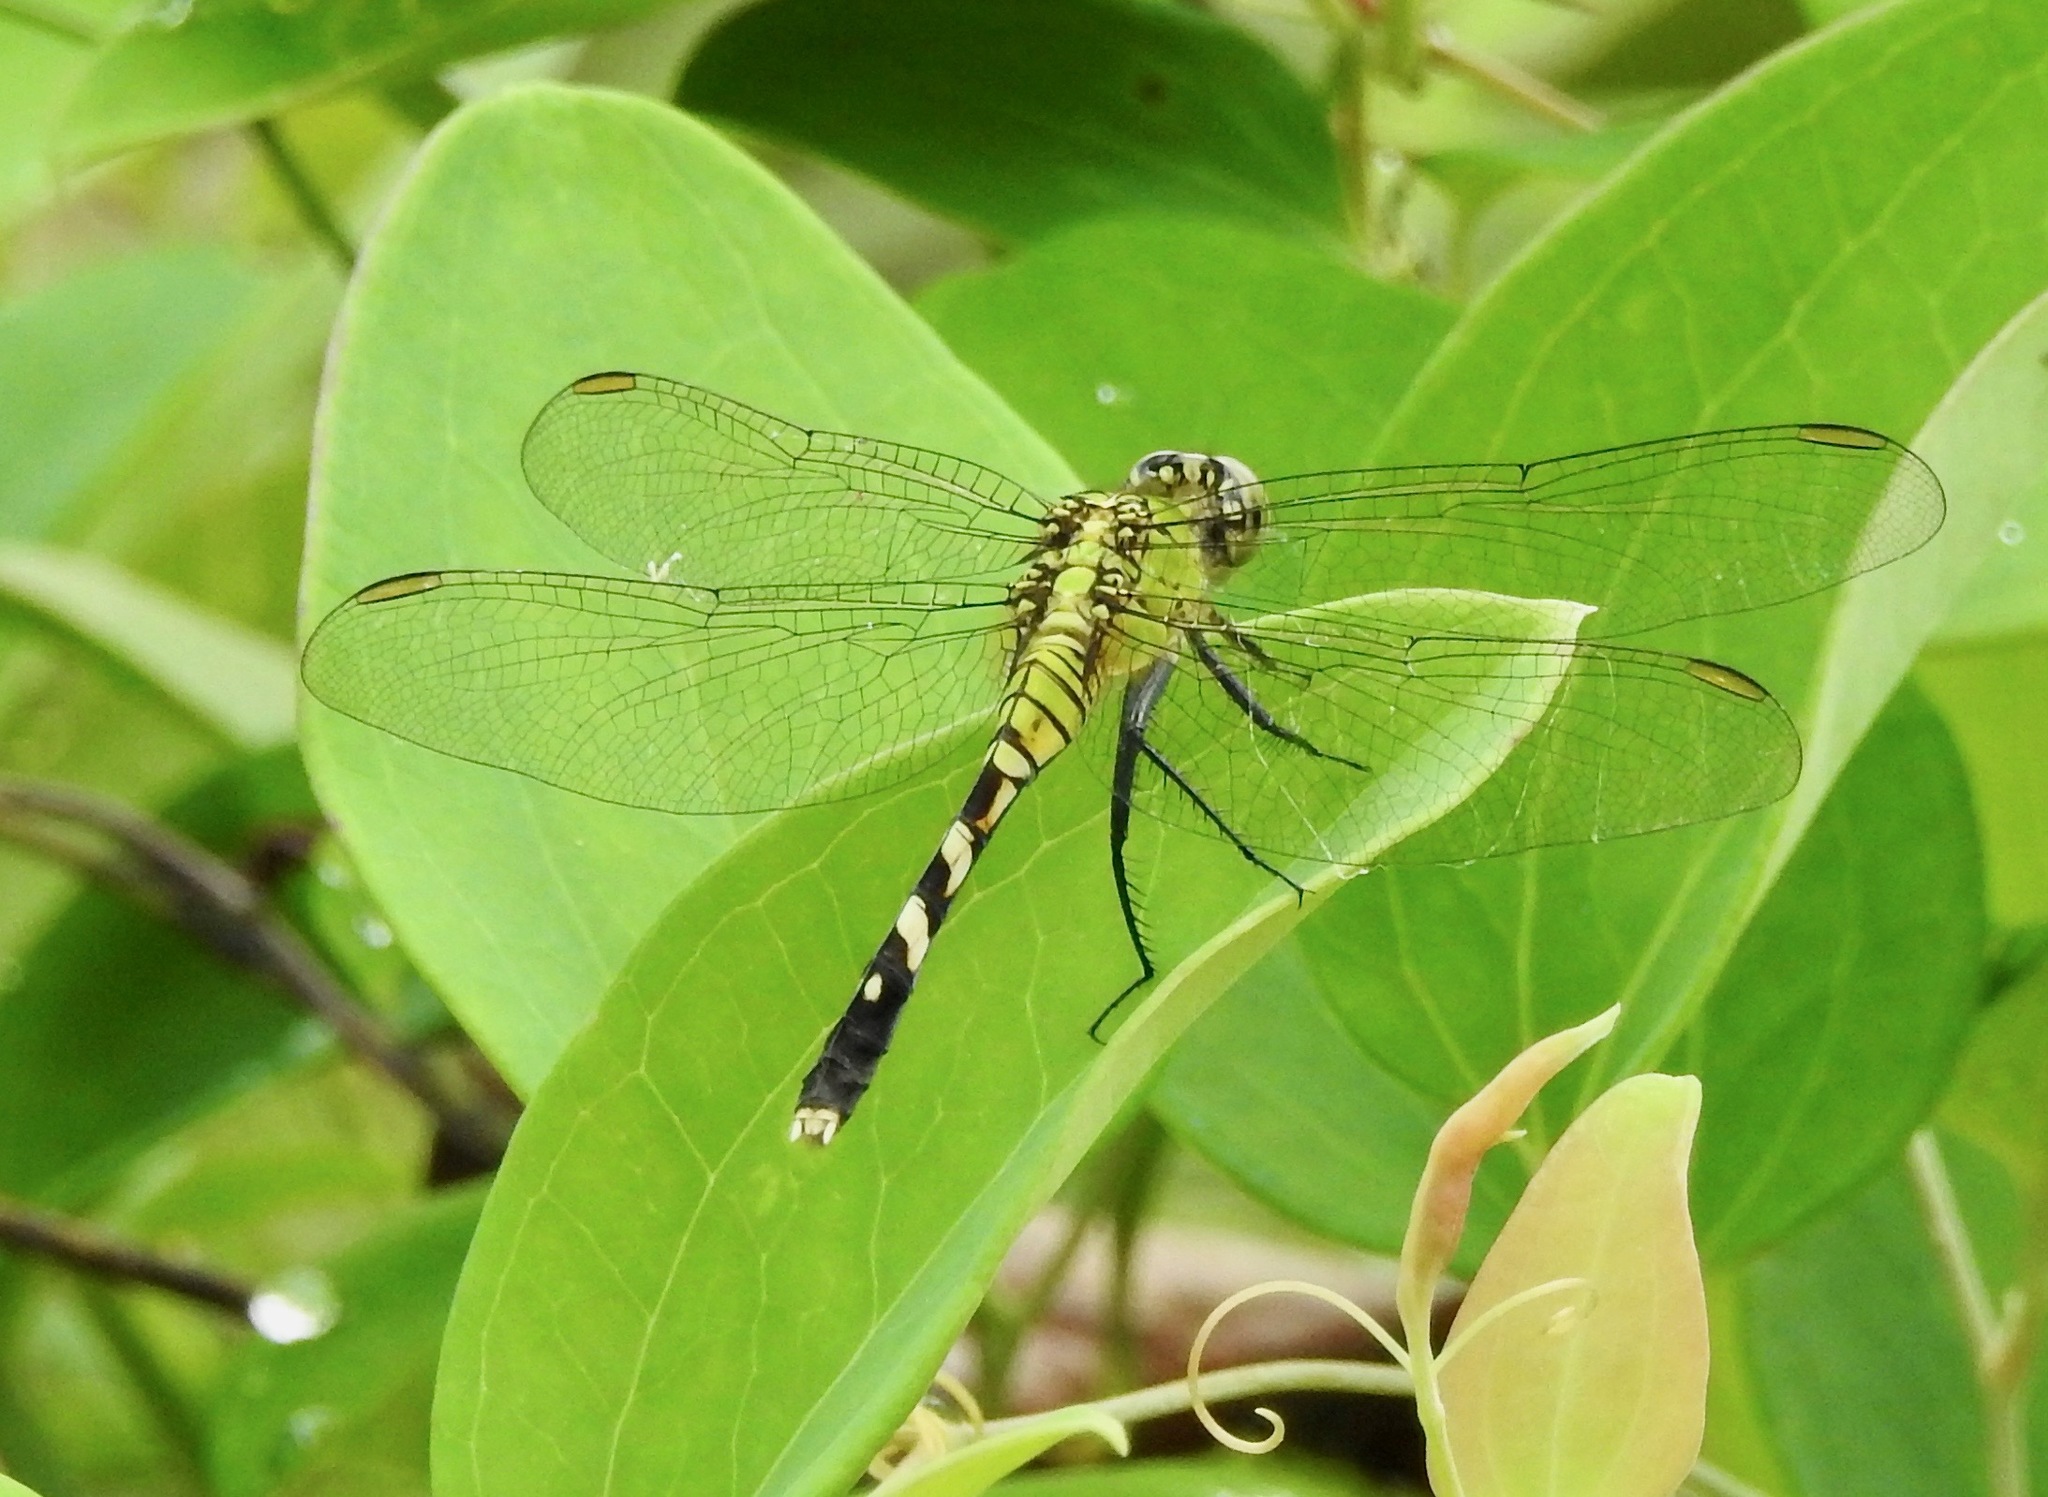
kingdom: Animalia
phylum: Arthropoda
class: Insecta
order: Odonata
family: Libellulidae
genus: Erythemis
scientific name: Erythemis simplicicollis
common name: Eastern pondhawk
